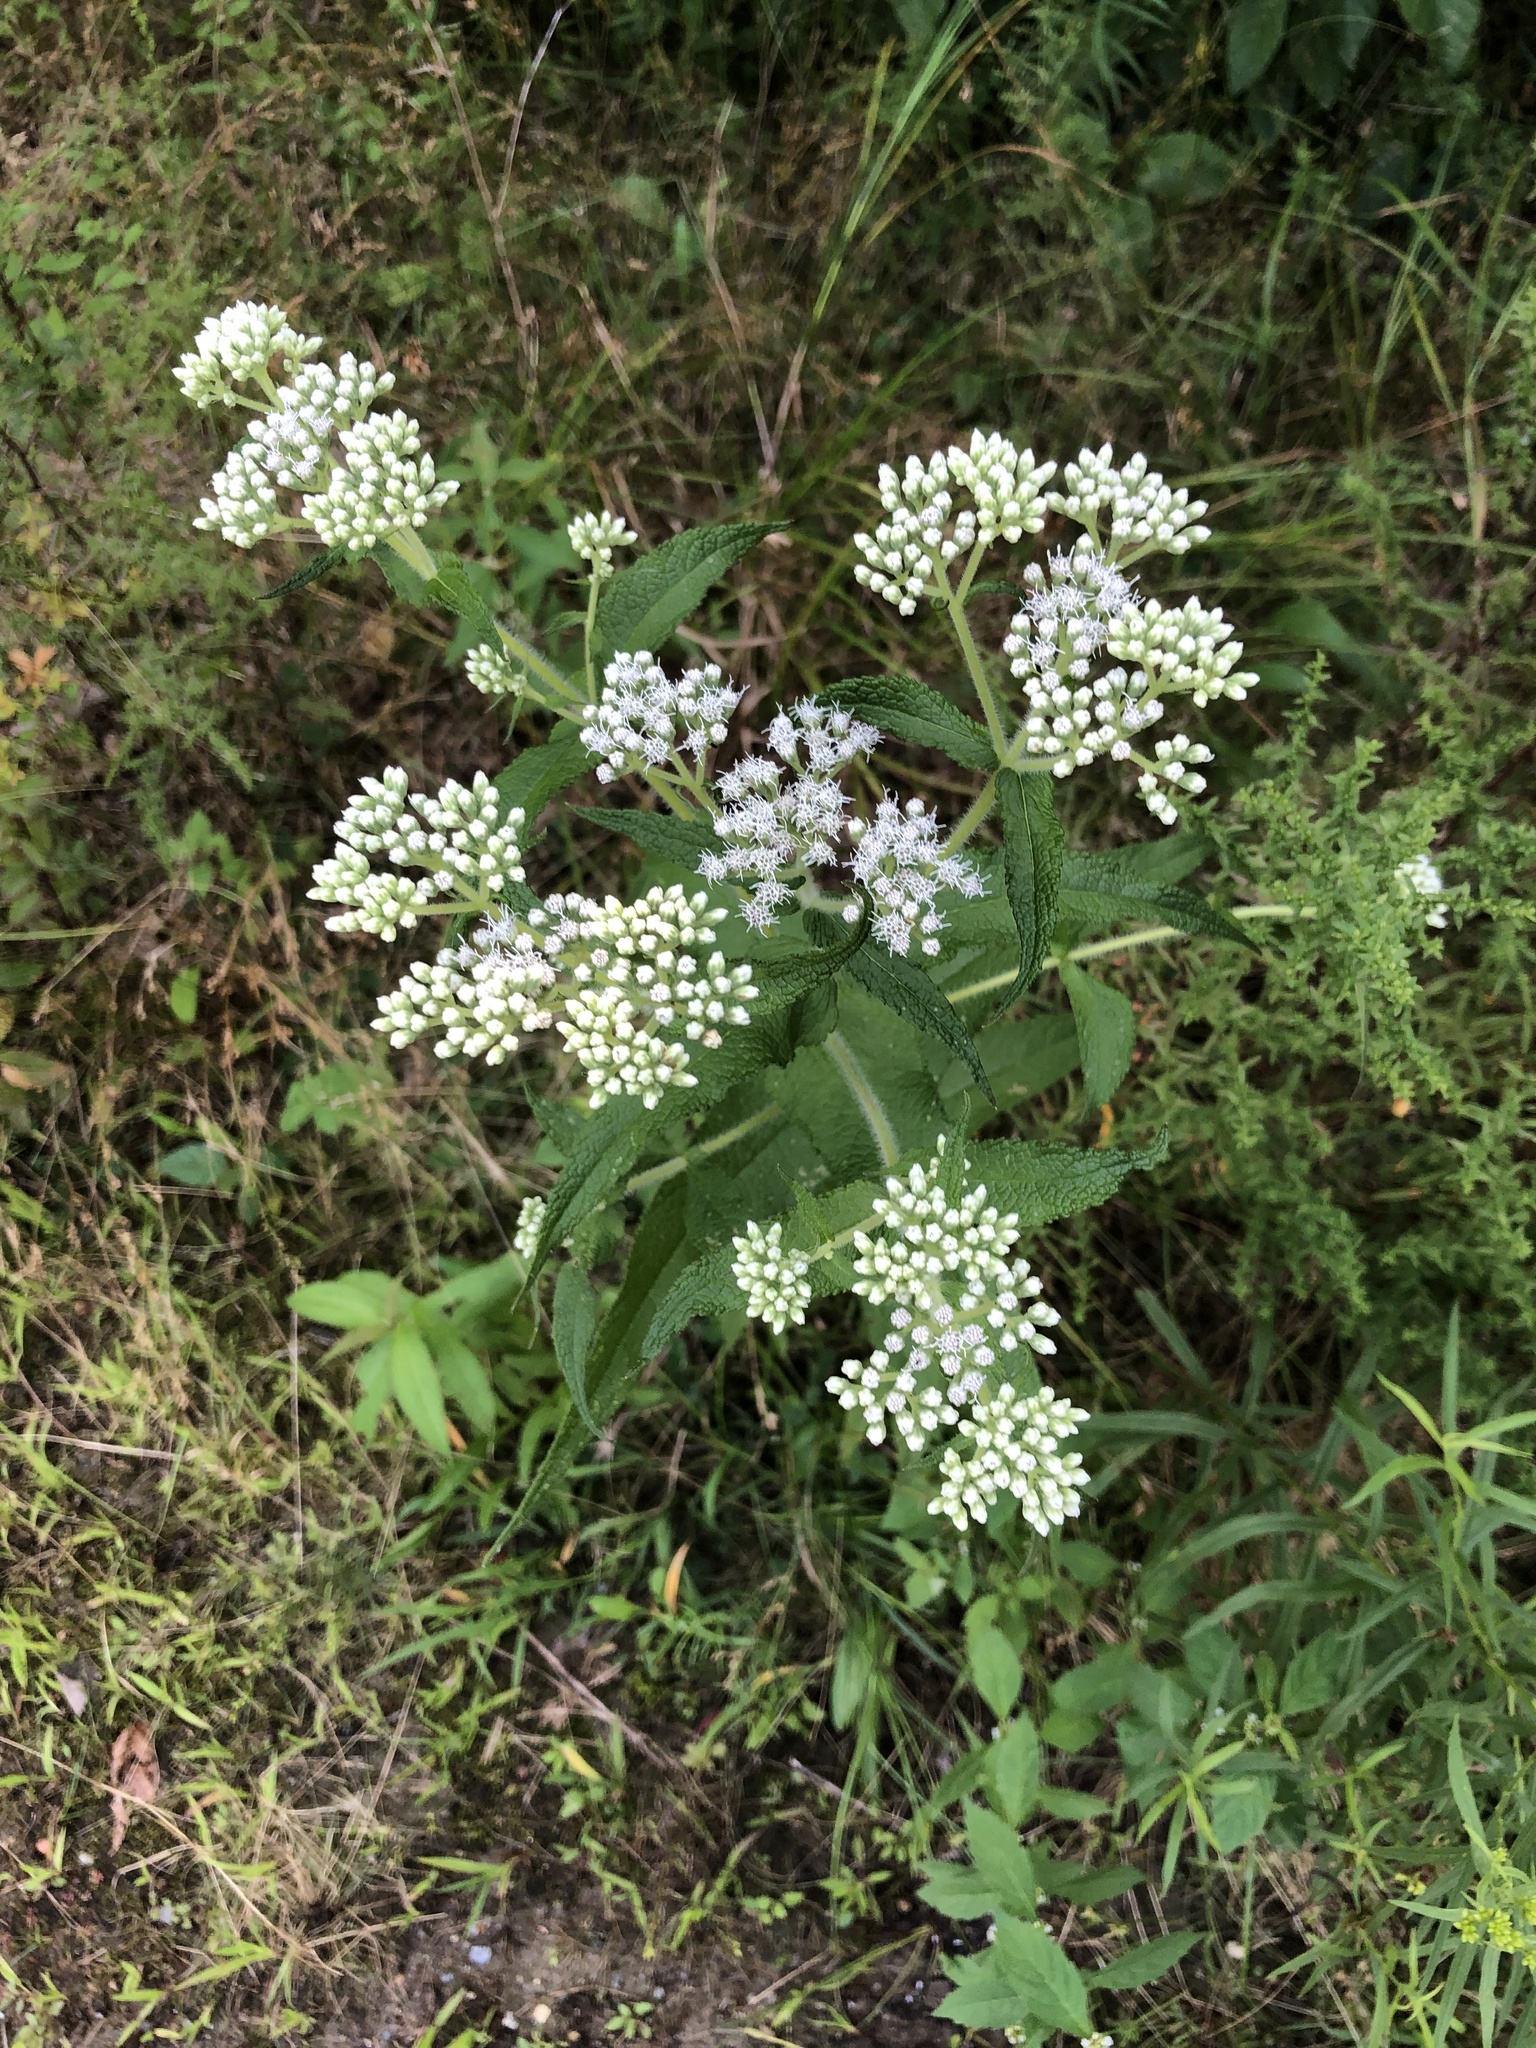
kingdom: Plantae
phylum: Tracheophyta
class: Magnoliopsida
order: Asterales
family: Asteraceae
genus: Eupatorium
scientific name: Eupatorium perfoliatum
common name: Boneset
